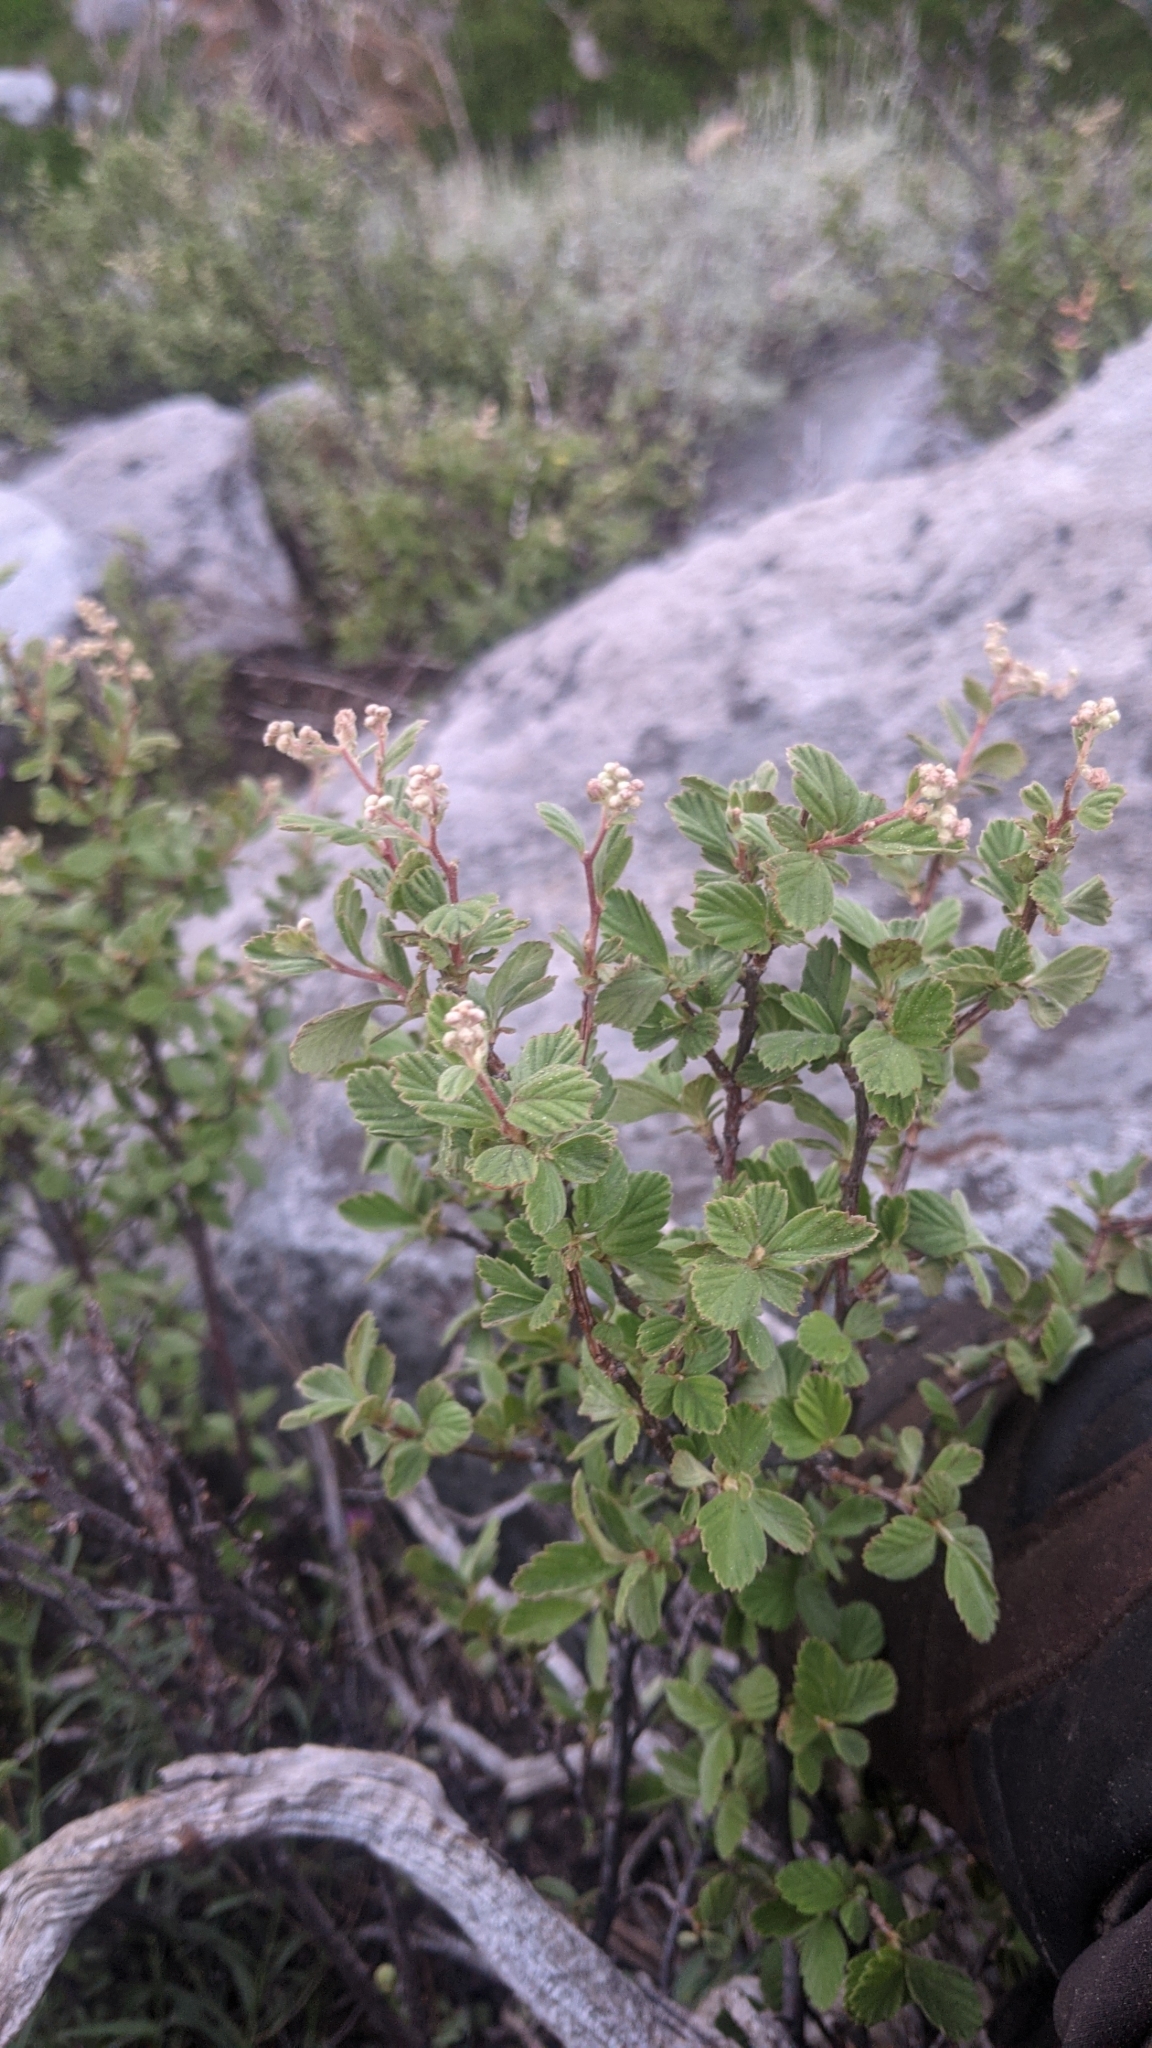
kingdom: Plantae
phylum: Tracheophyta
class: Magnoliopsida
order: Rosales
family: Rosaceae
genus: Holodiscus
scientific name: Holodiscus discolor
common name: Oceanspray
